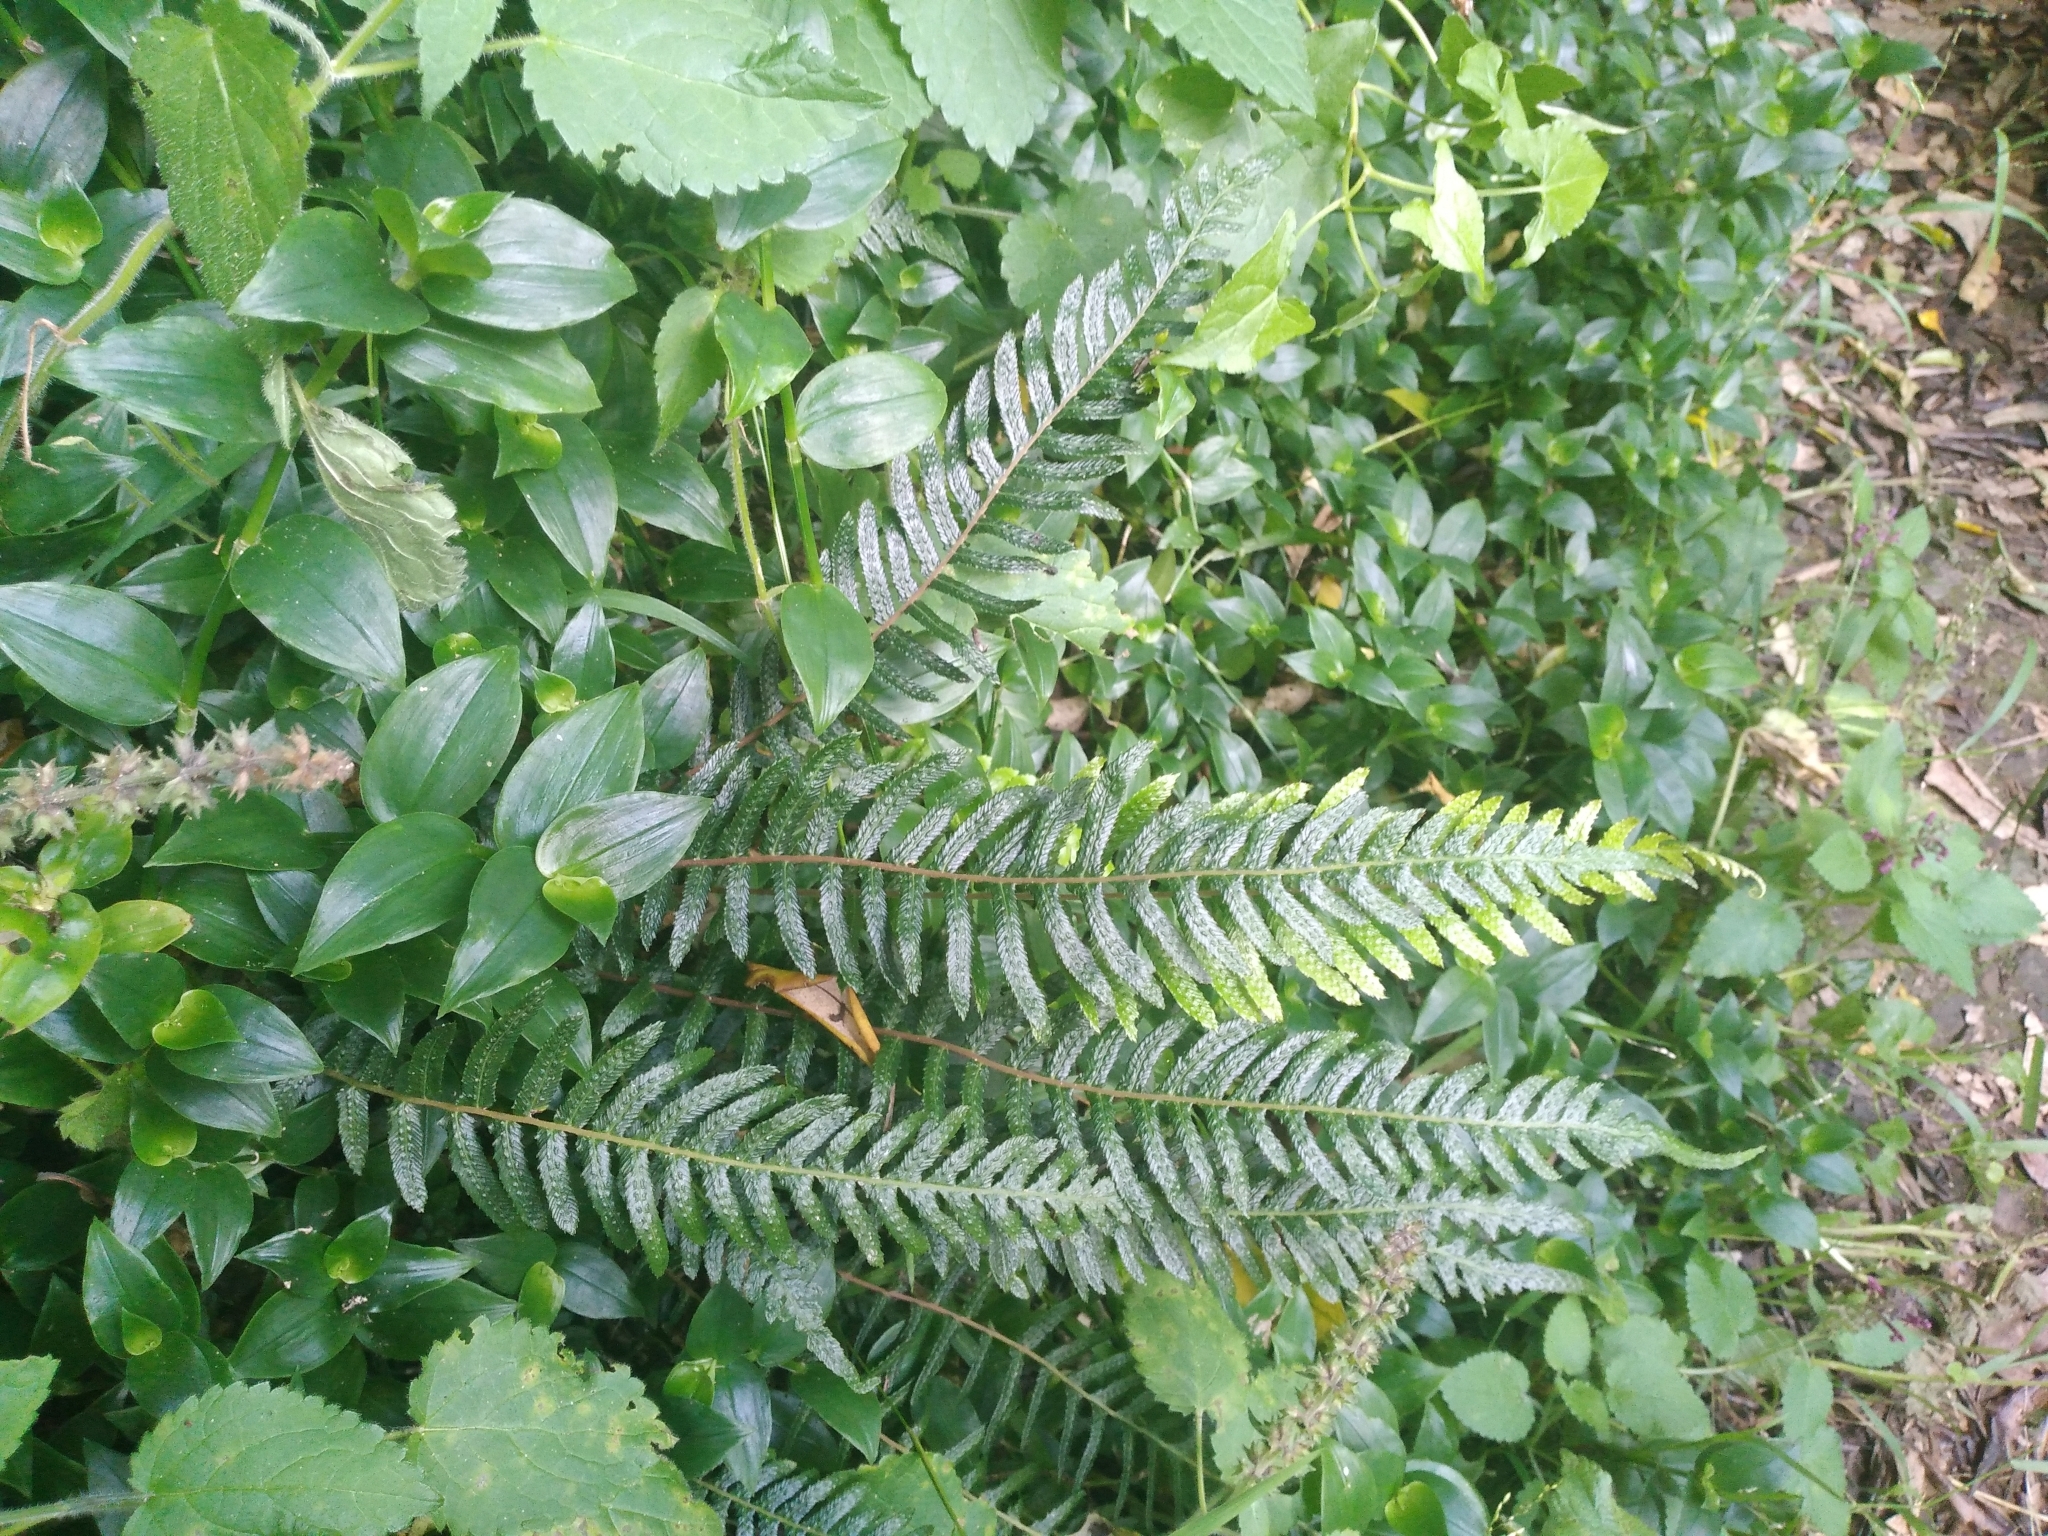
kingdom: Plantae
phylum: Tracheophyta
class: Polypodiopsida
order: Polypodiales
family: Blechnaceae
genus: Doodia
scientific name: Doodia australis
